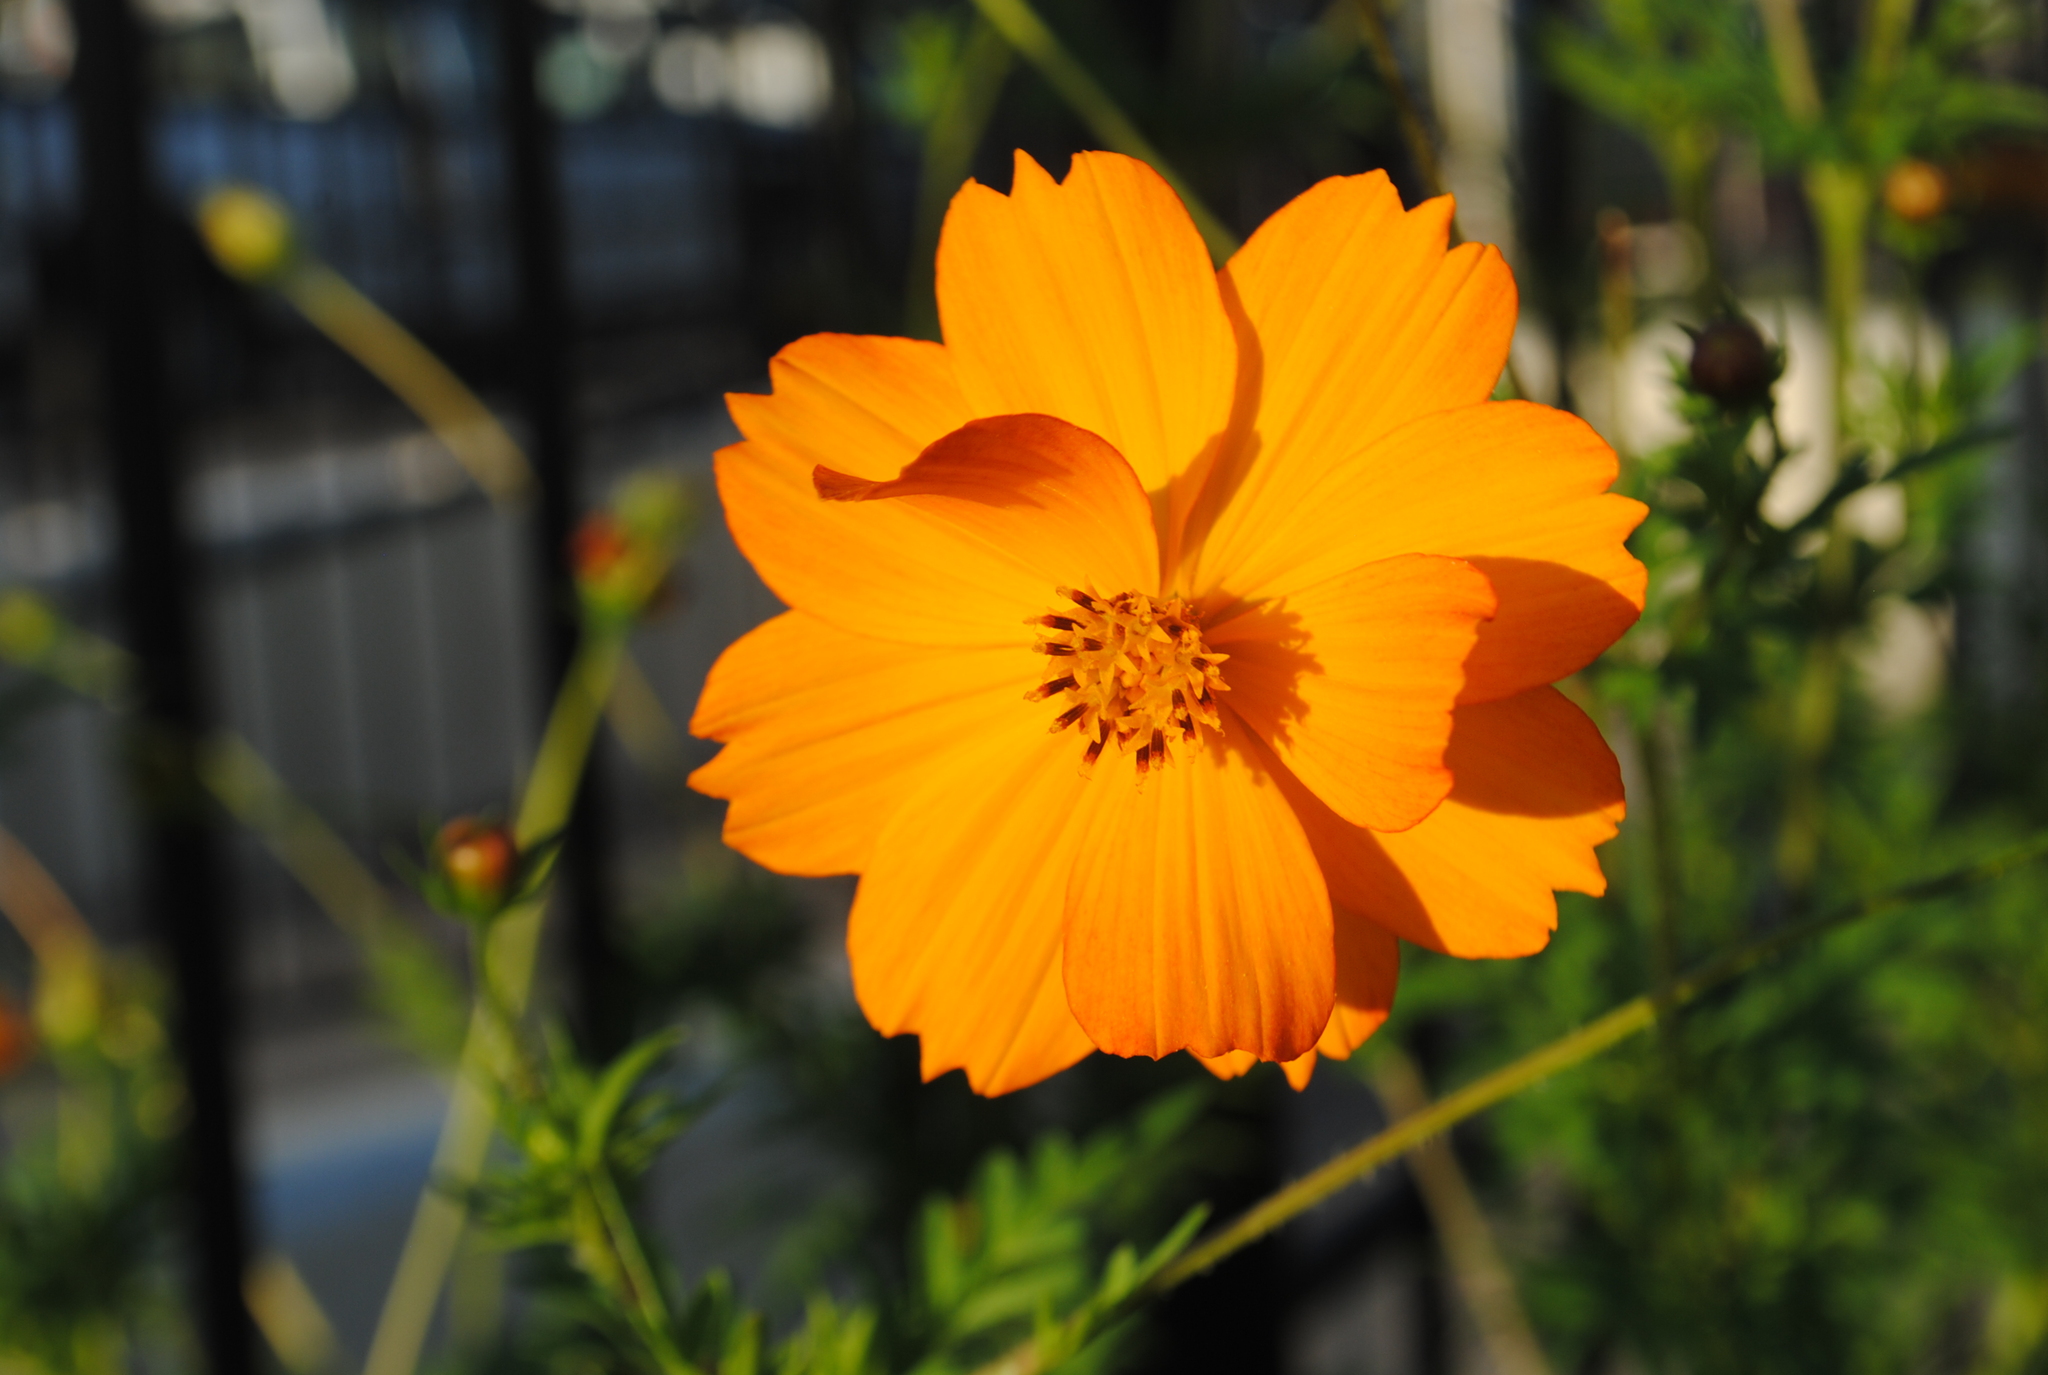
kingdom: Plantae
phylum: Tracheophyta
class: Magnoliopsida
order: Asterales
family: Asteraceae
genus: Cosmos
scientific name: Cosmos sulphureus
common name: Sulphur cosmos
